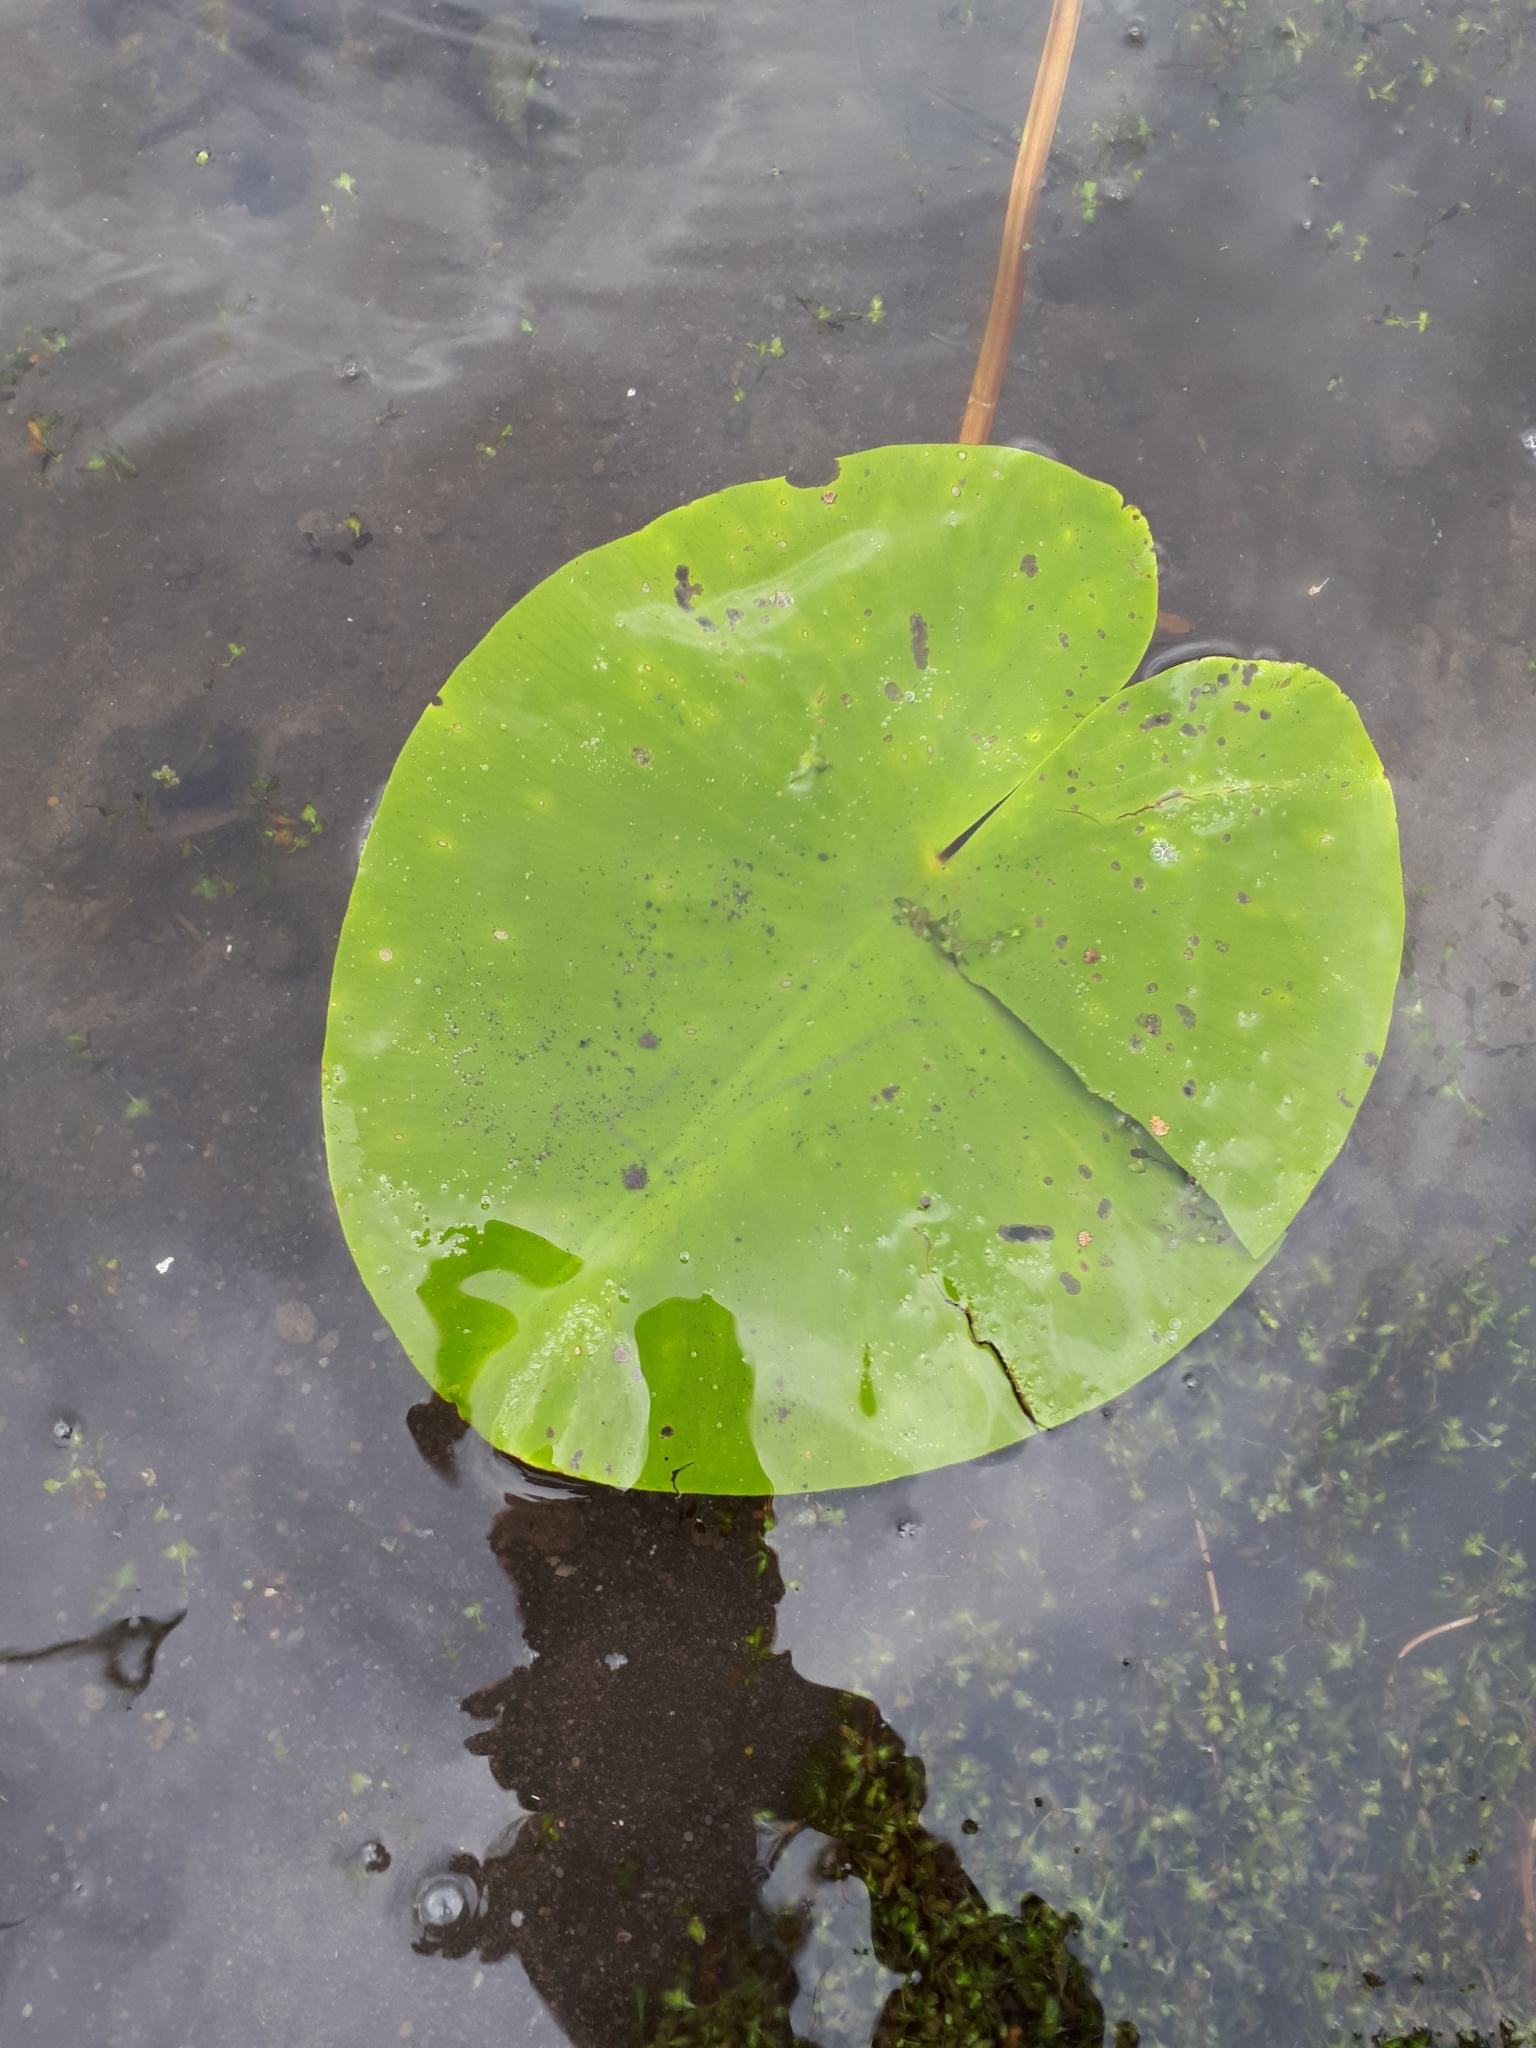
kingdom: Plantae
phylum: Tracheophyta
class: Magnoliopsida
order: Nymphaeales
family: Nymphaeaceae
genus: Nuphar
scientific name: Nuphar lutea
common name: Yellow water-lily
